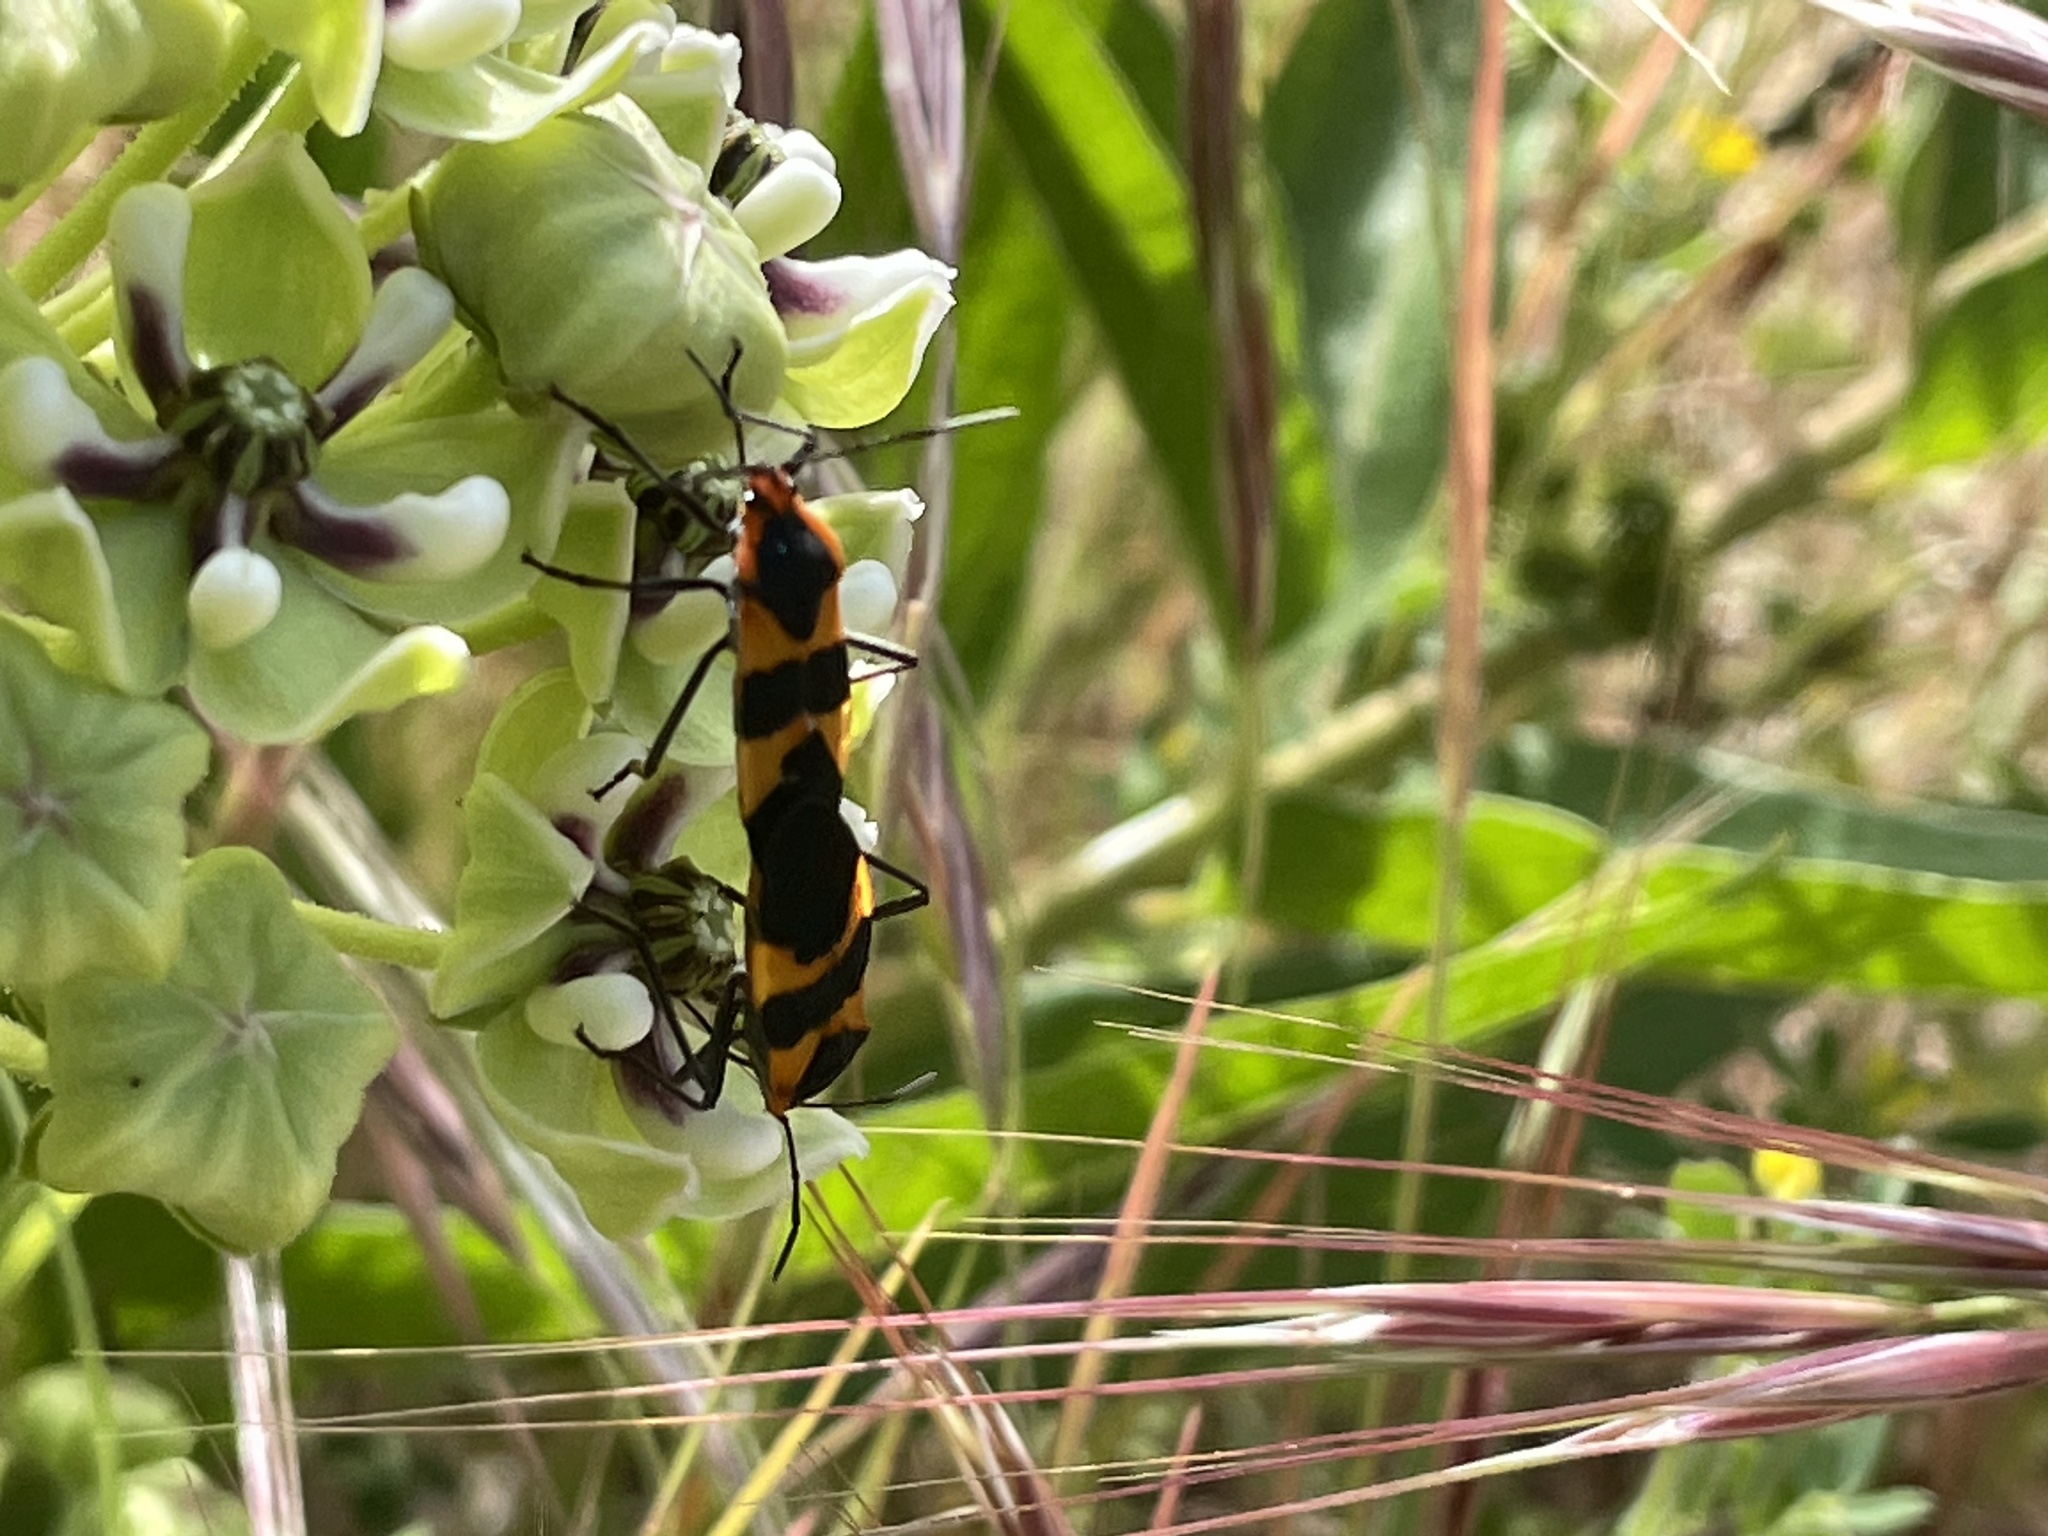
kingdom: Animalia
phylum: Arthropoda
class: Insecta
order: Hemiptera
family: Lygaeidae
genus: Oncopeltus
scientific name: Oncopeltus fasciatus
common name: Large milkweed bug
